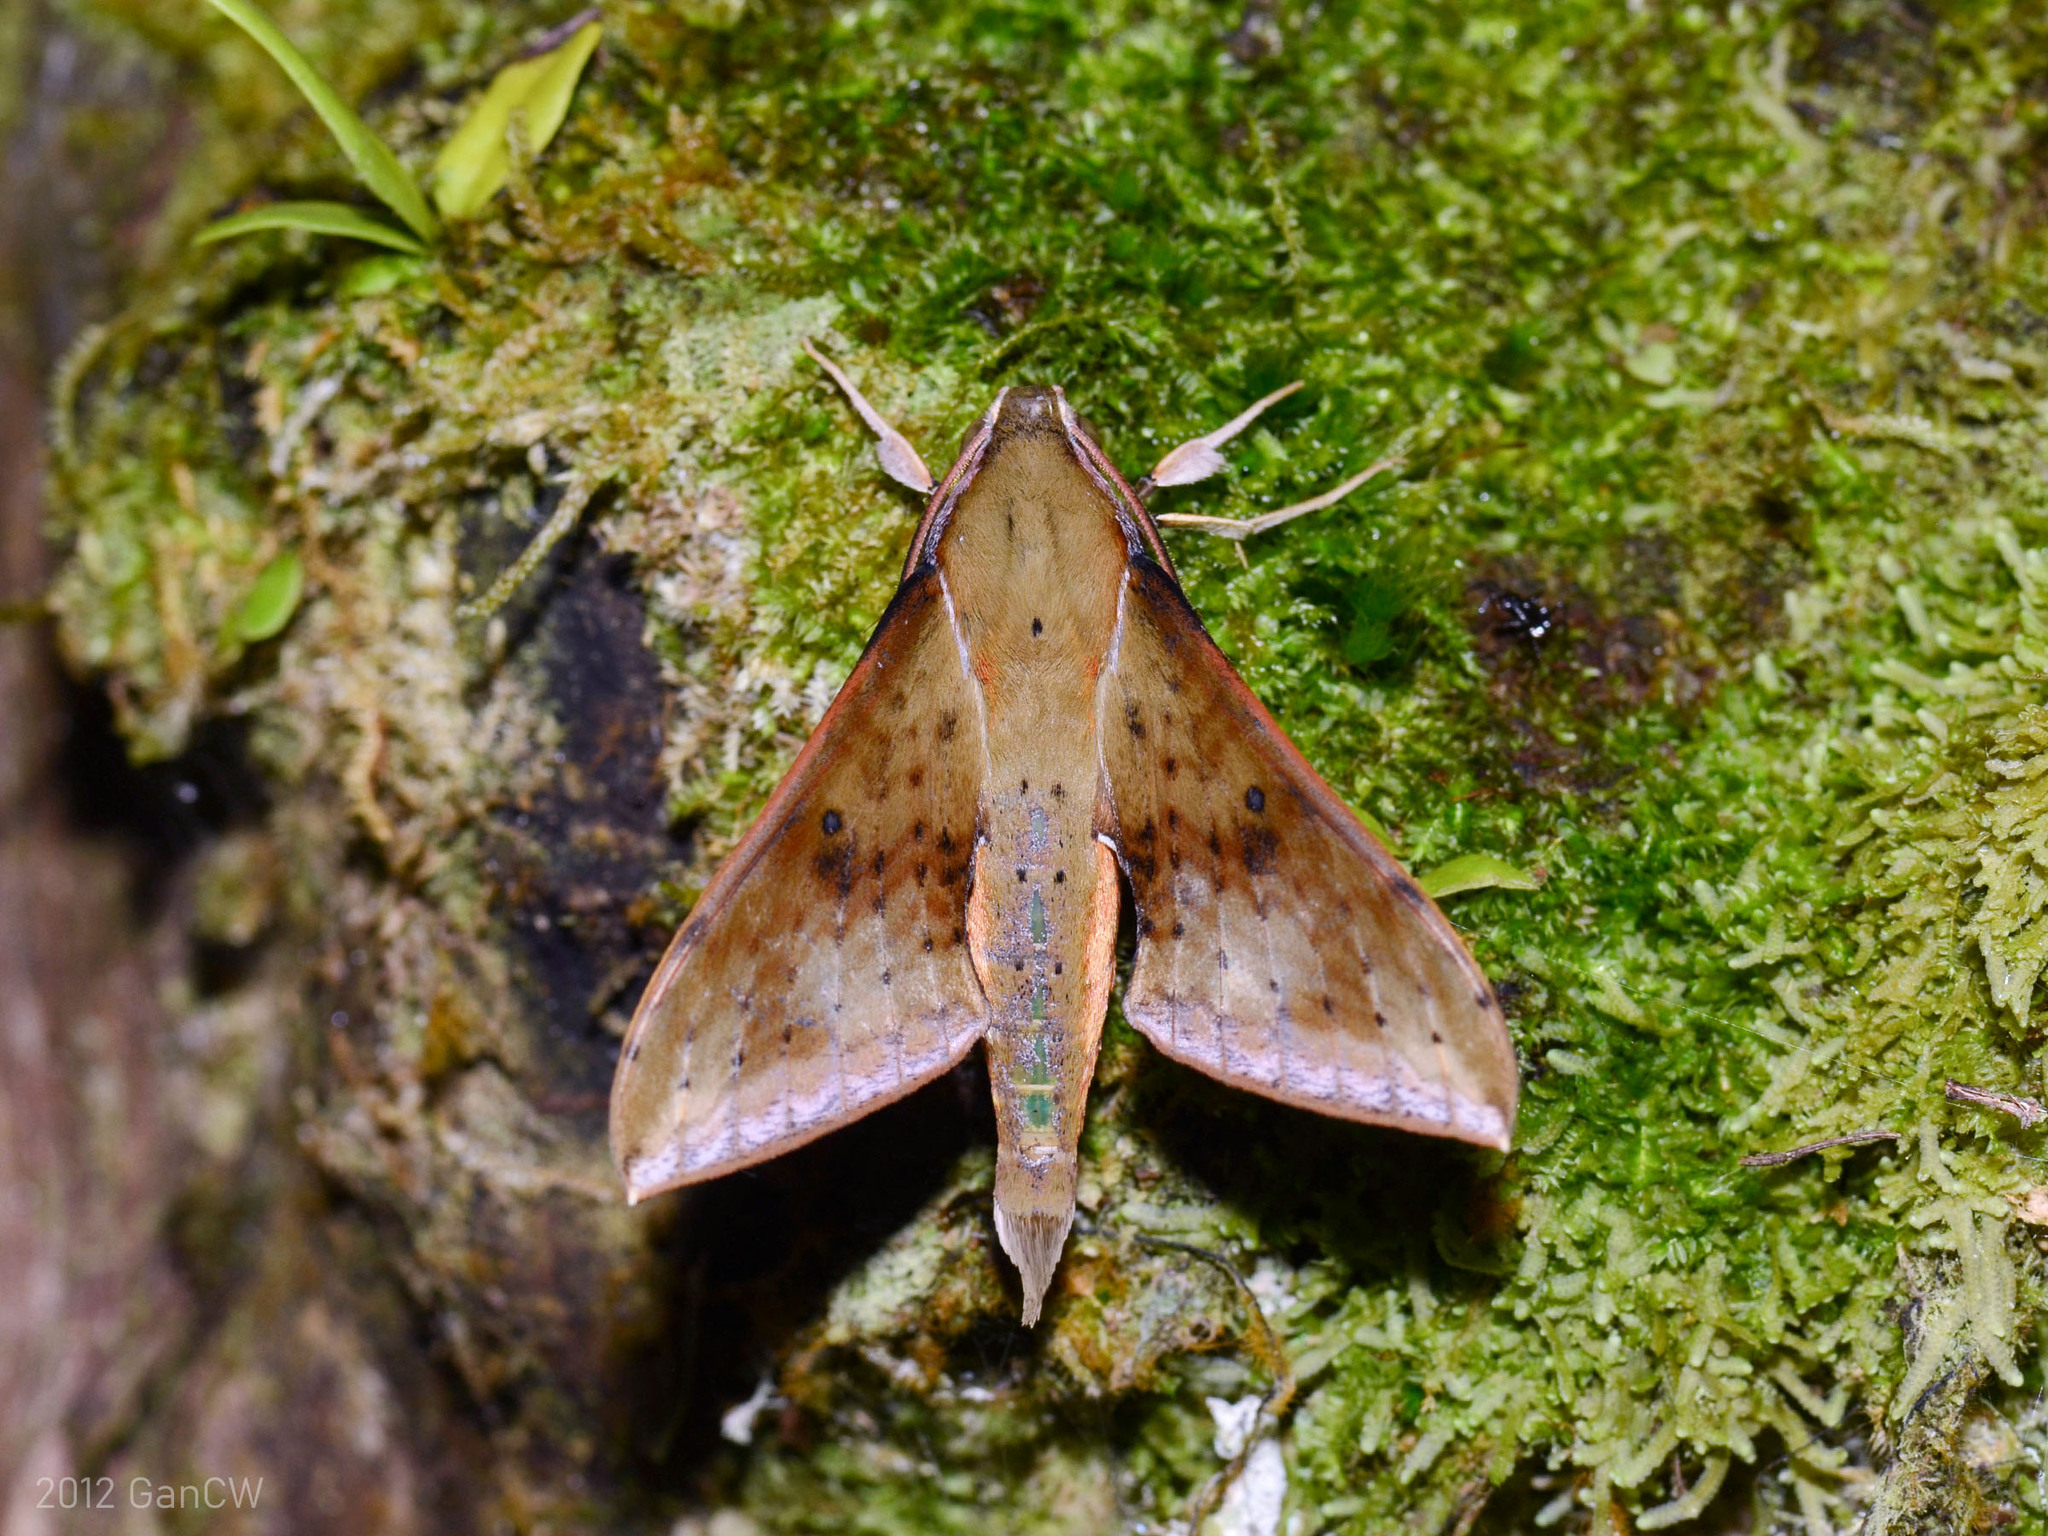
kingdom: Animalia
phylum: Arthropoda
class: Insecta
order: Lepidoptera
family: Sphingidae
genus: Rhagastis
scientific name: Rhagastis castor
